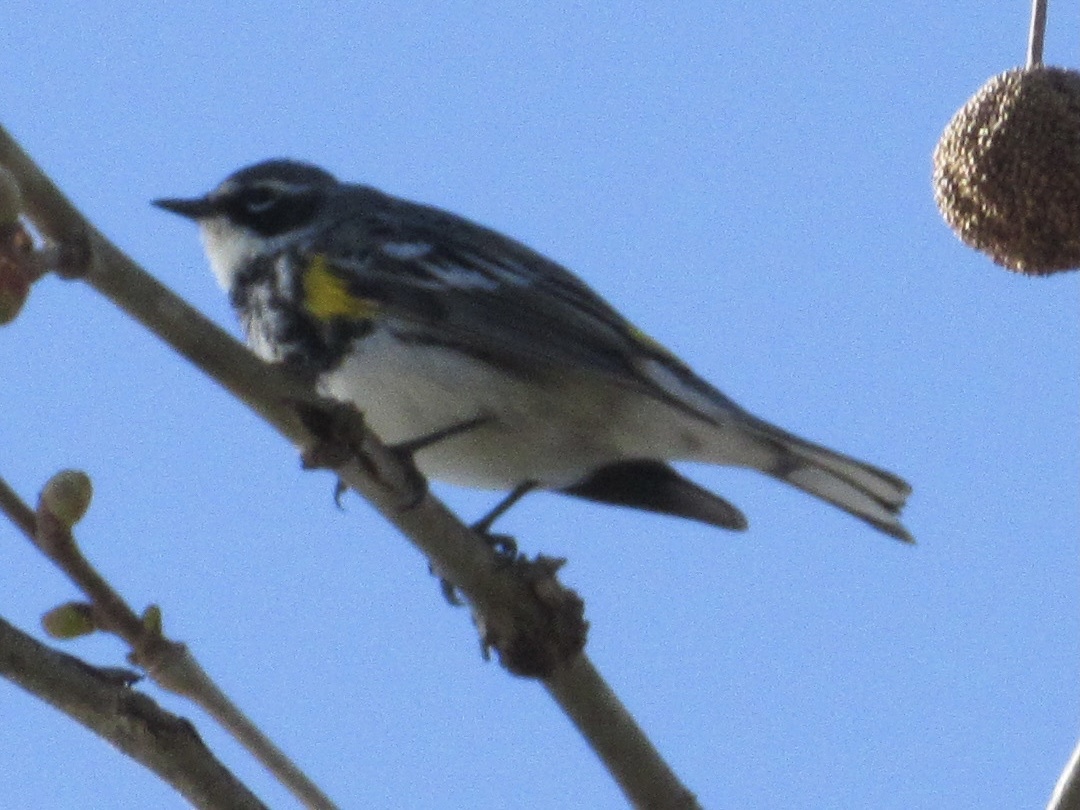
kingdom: Animalia
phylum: Chordata
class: Aves
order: Passeriformes
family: Parulidae
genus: Setophaga
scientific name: Setophaga coronata
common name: Myrtle warbler
